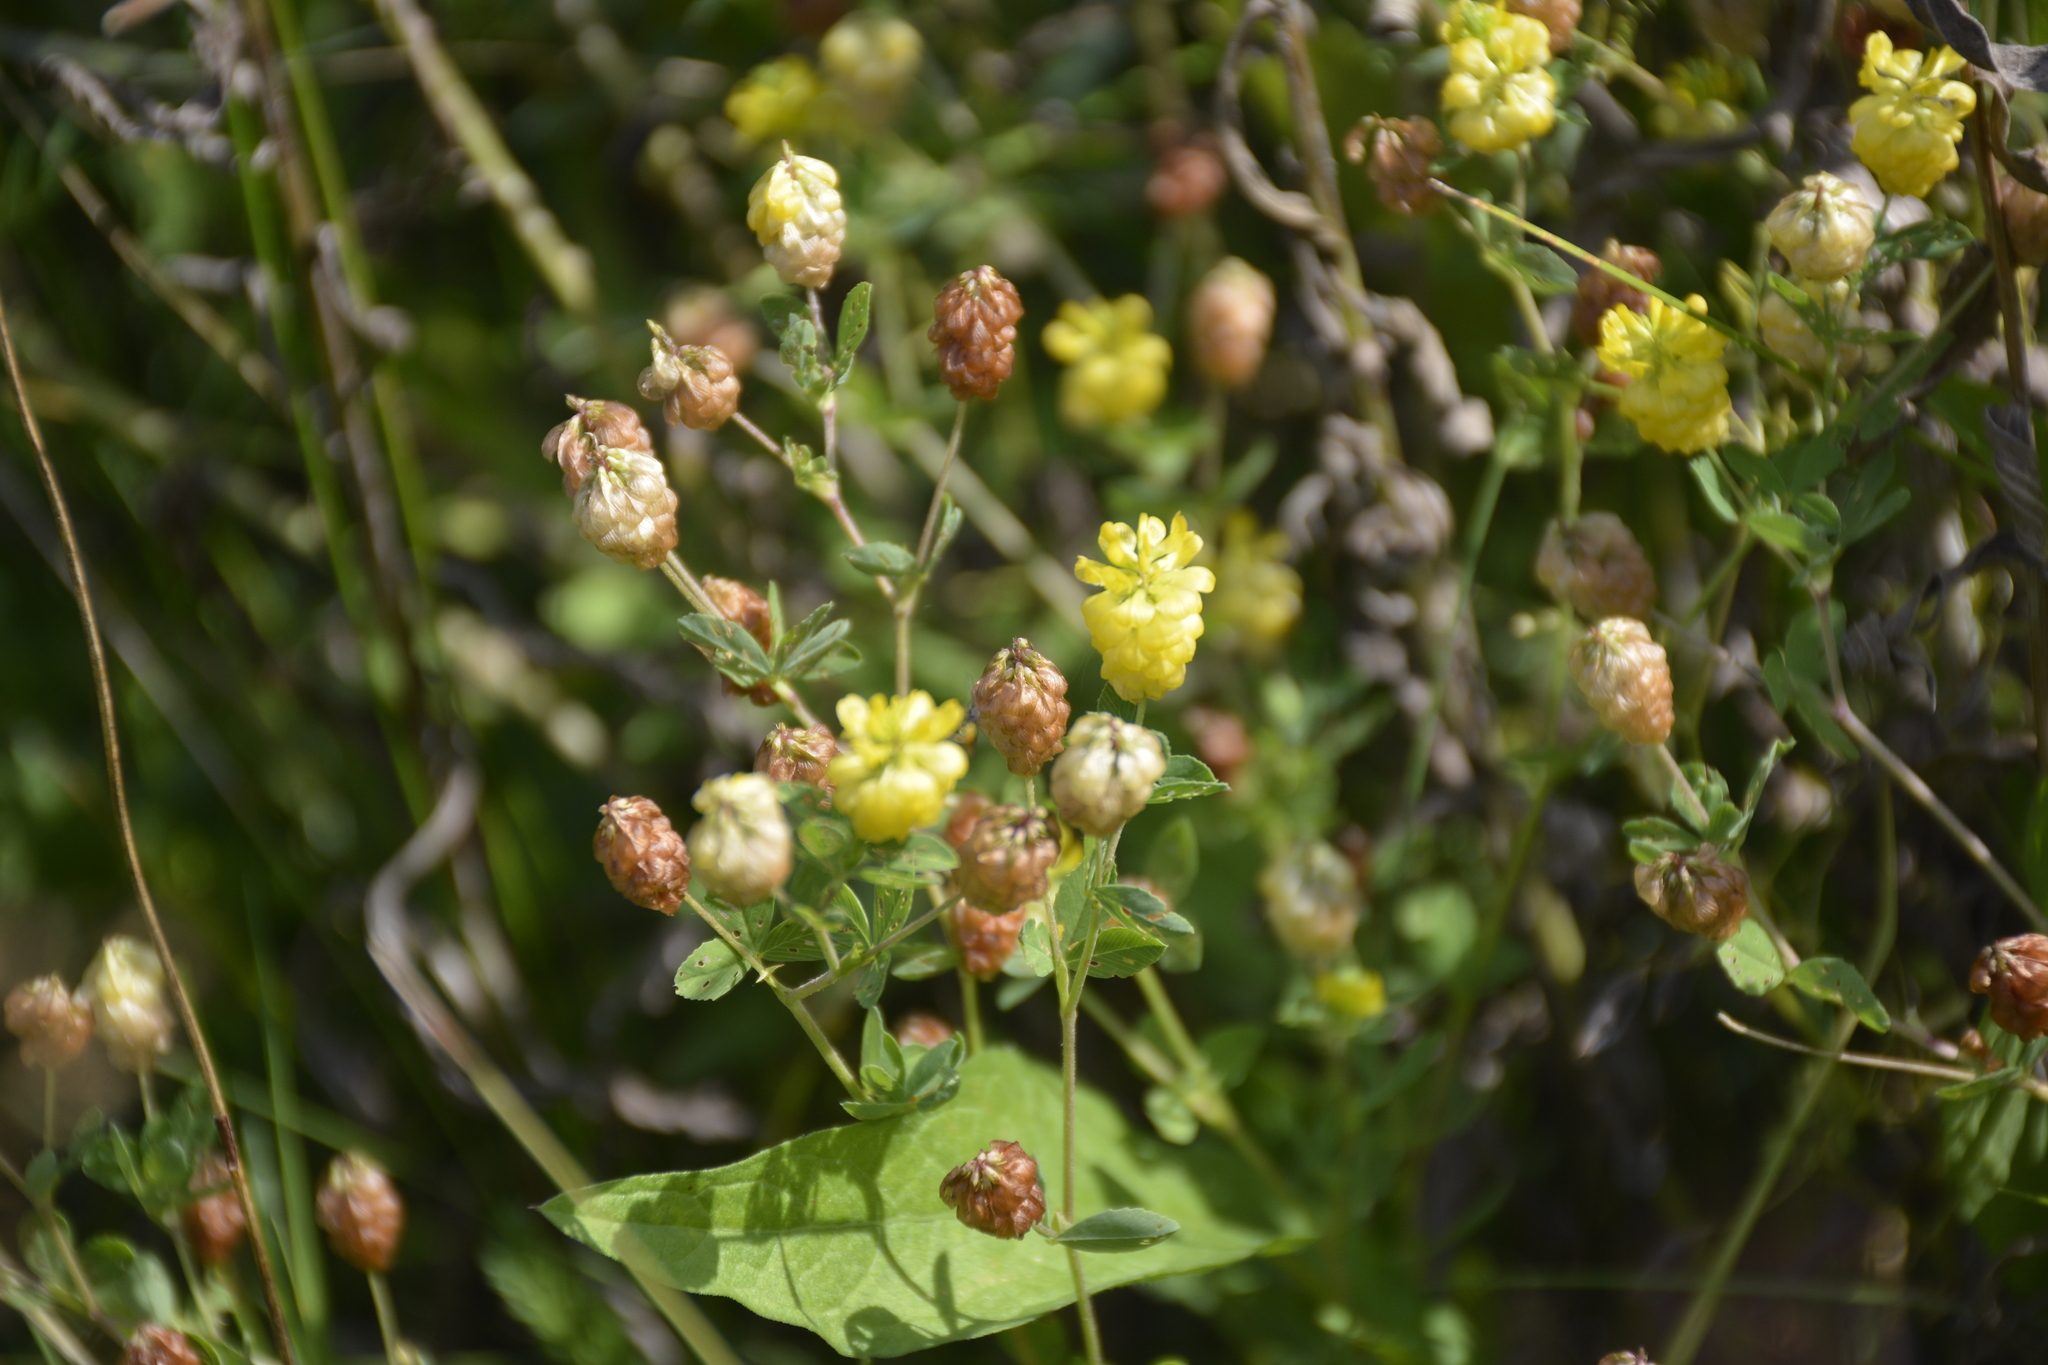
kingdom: Plantae
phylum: Tracheophyta
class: Magnoliopsida
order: Fabales
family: Fabaceae
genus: Trifolium
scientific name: Trifolium aureum
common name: Golden clover
